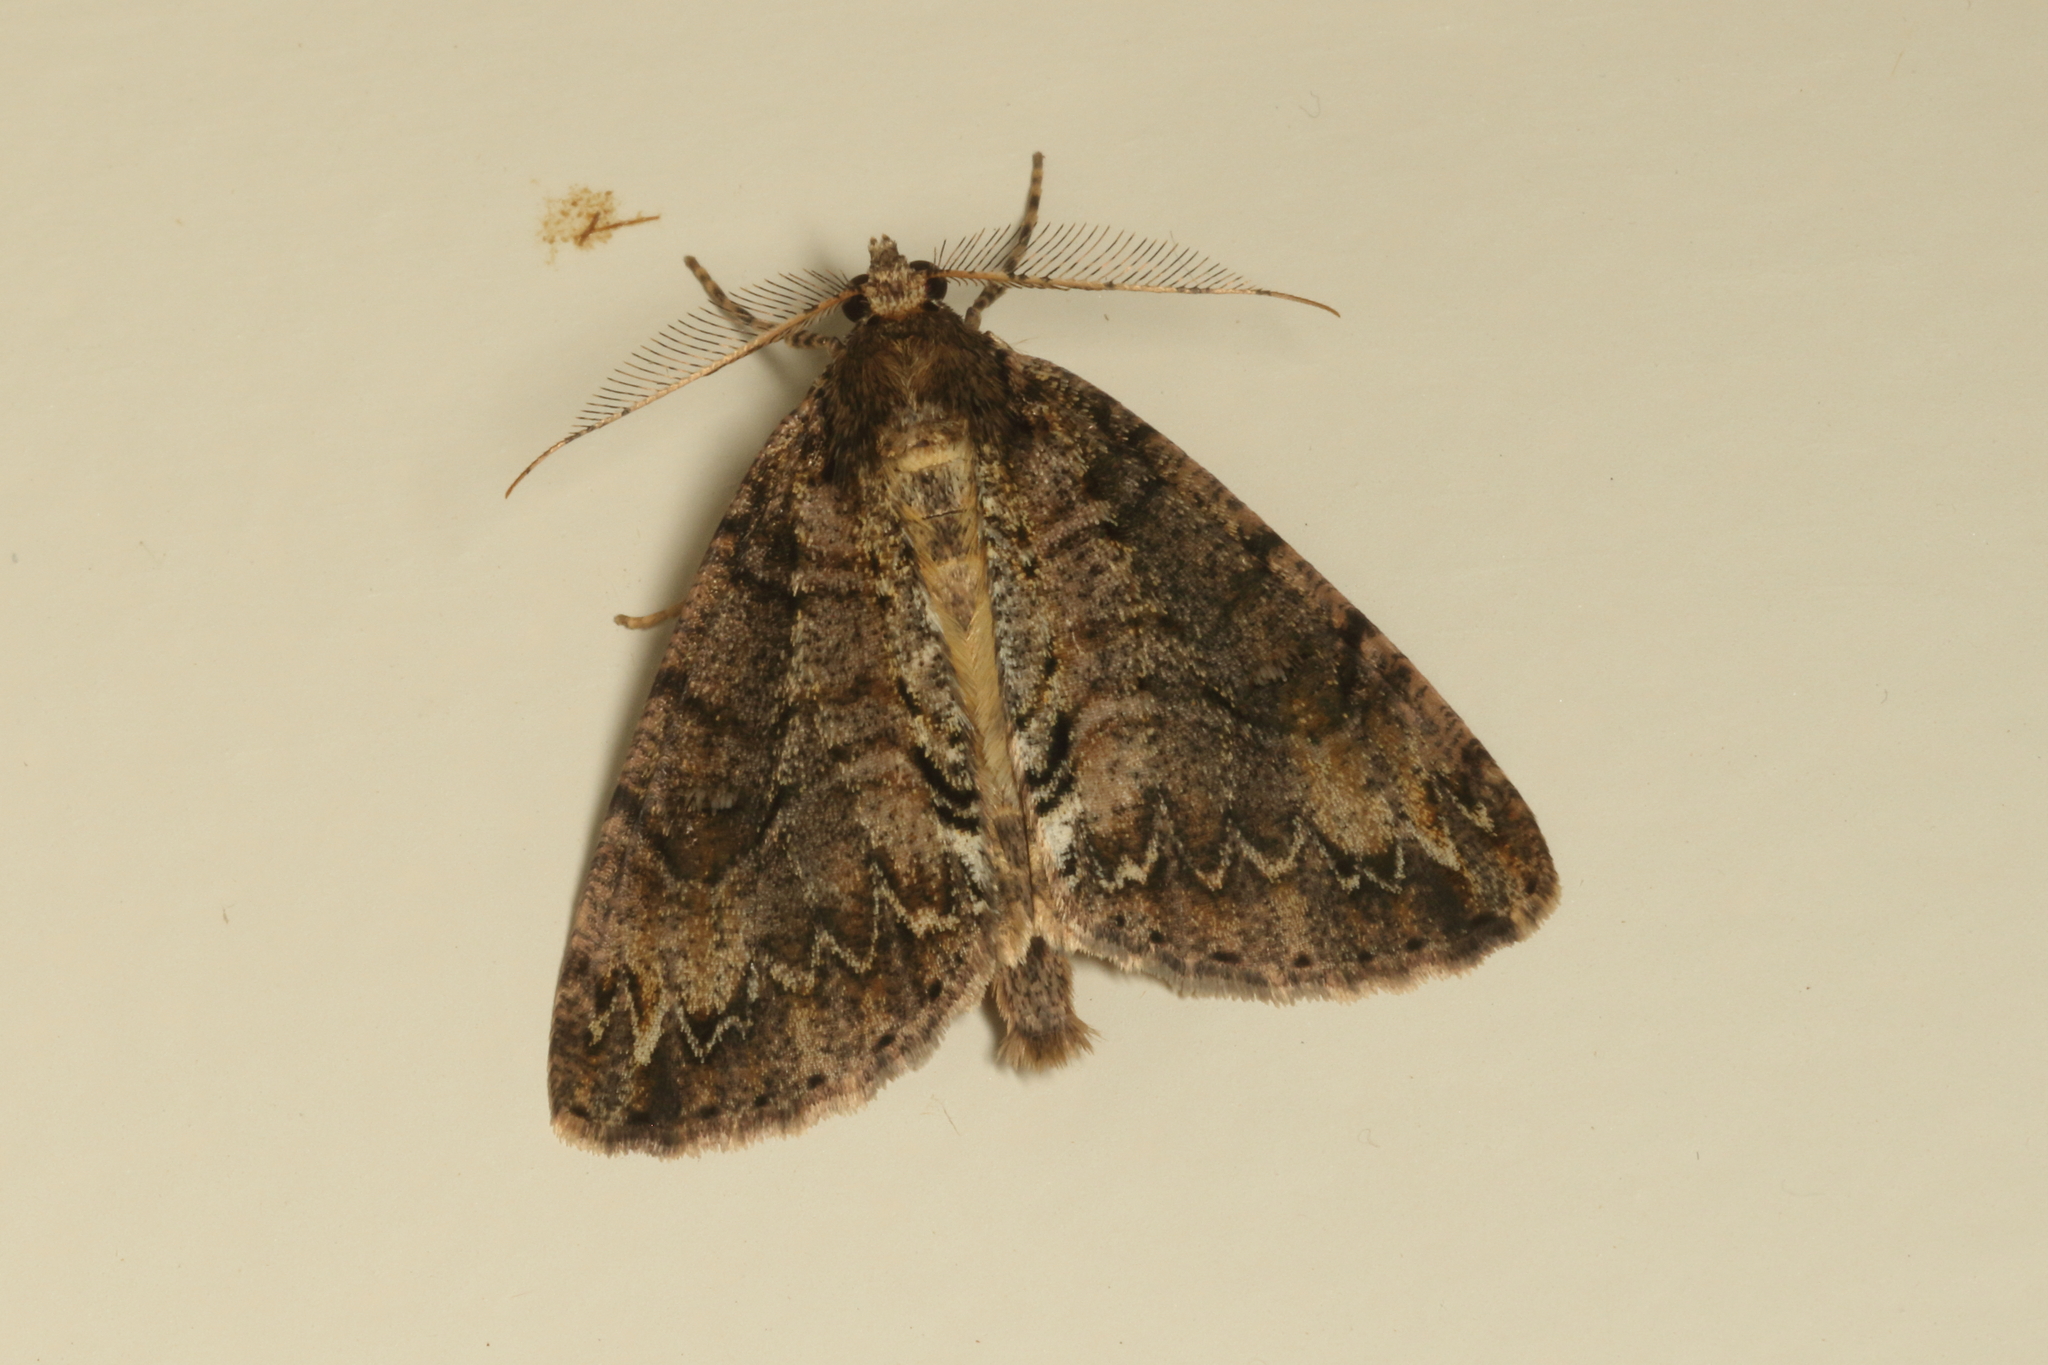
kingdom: Animalia
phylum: Arthropoda
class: Insecta
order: Lepidoptera
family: Geometridae
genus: Pseudocoremia
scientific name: Pseudocoremia suavis
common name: Common forest looper
